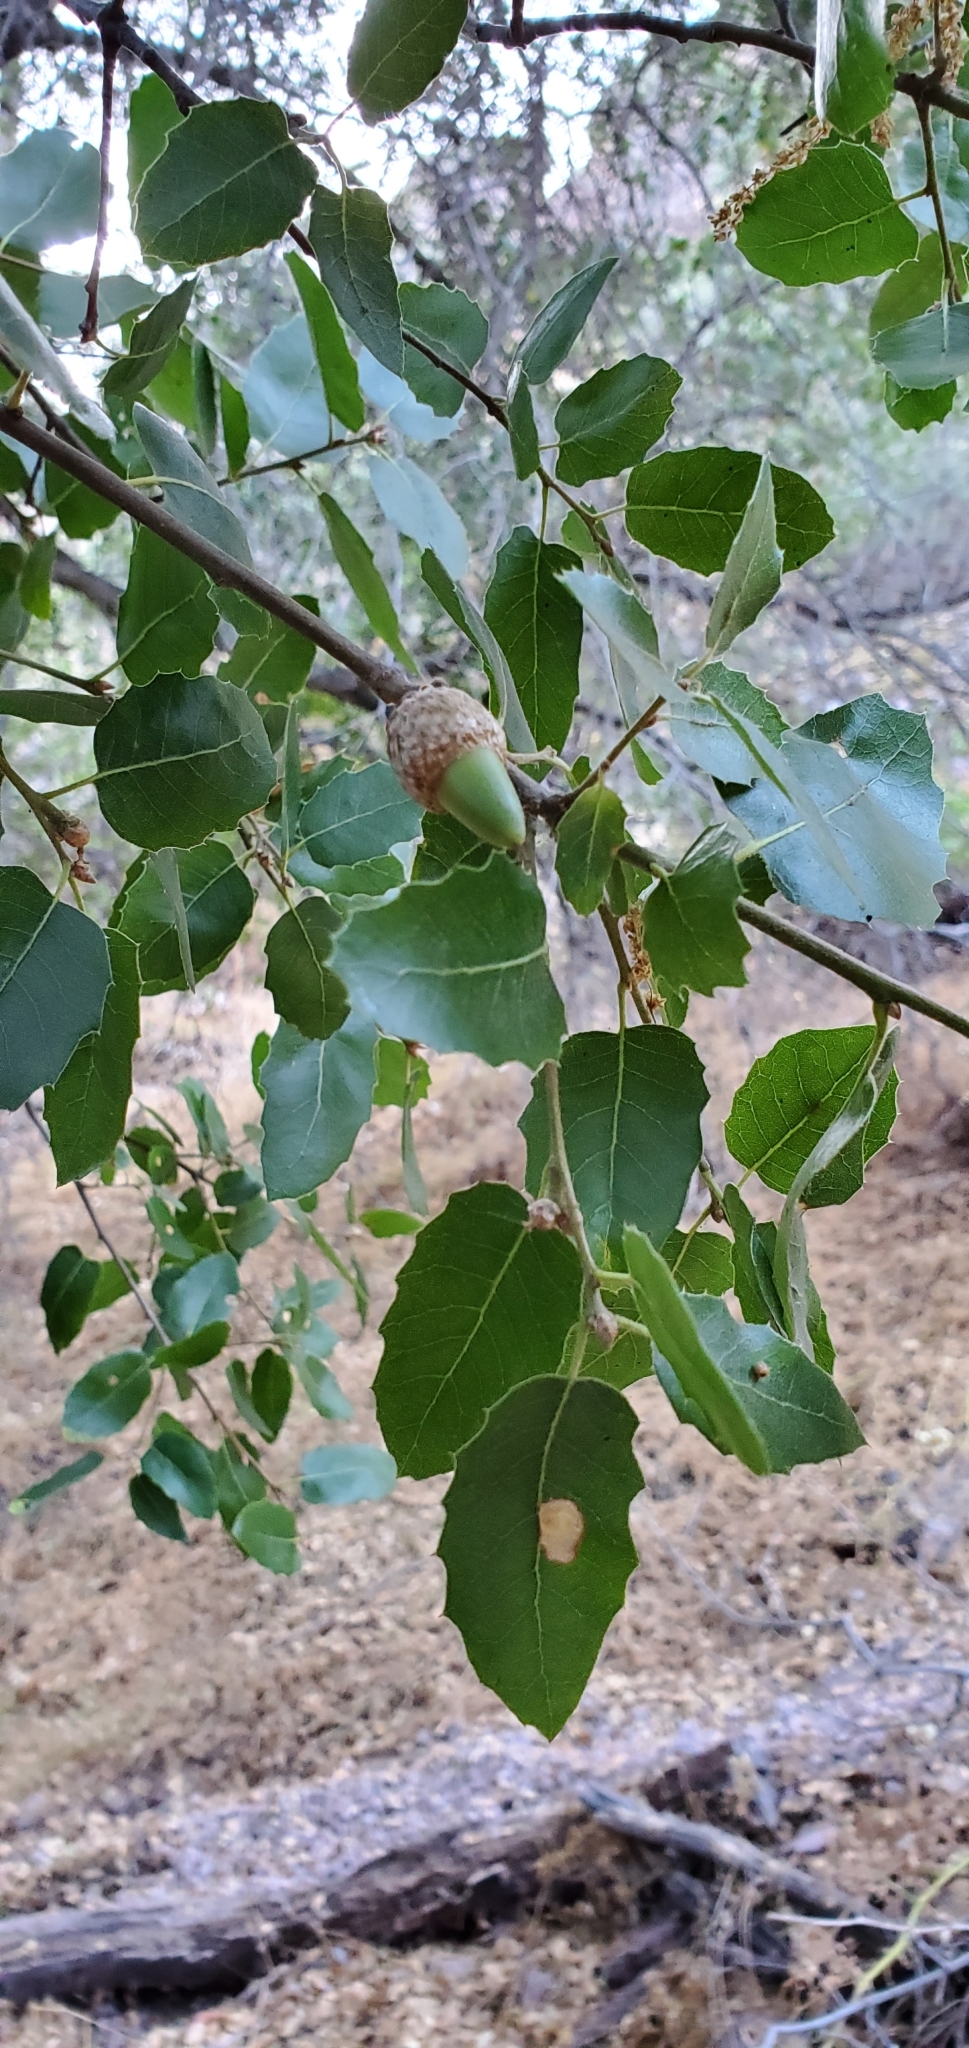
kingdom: Plantae
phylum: Tracheophyta
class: Magnoliopsida
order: Fagales
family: Fagaceae
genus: Quercus
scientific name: Quercus wislizeni
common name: Interior live oak
